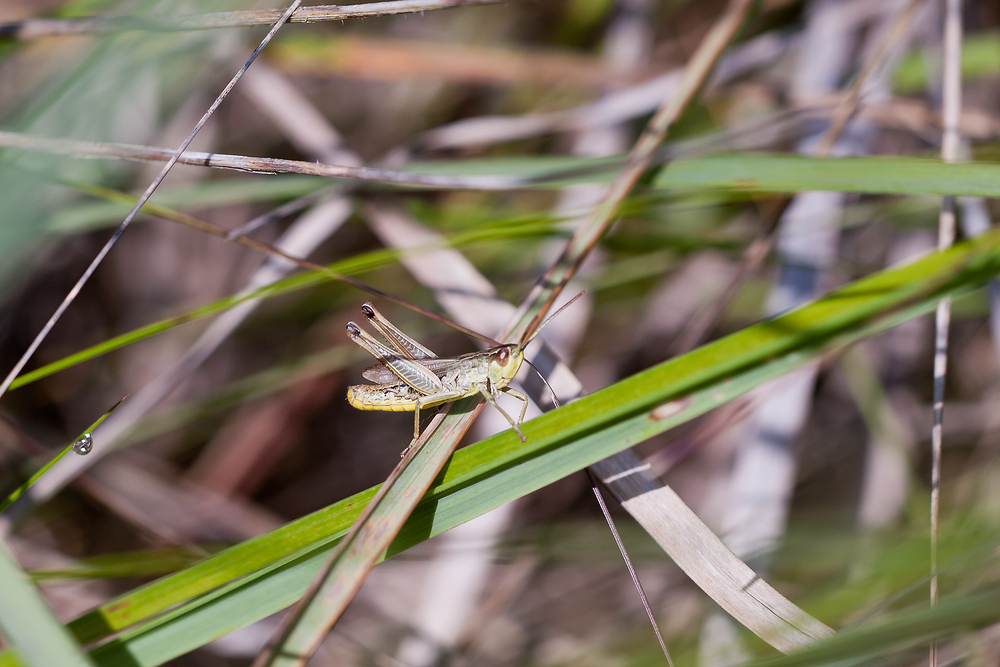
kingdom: Animalia
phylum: Arthropoda
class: Insecta
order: Orthoptera
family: Acrididae
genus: Pseudochorthippus
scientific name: Pseudochorthippus parallelus
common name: Meadow grasshopper
